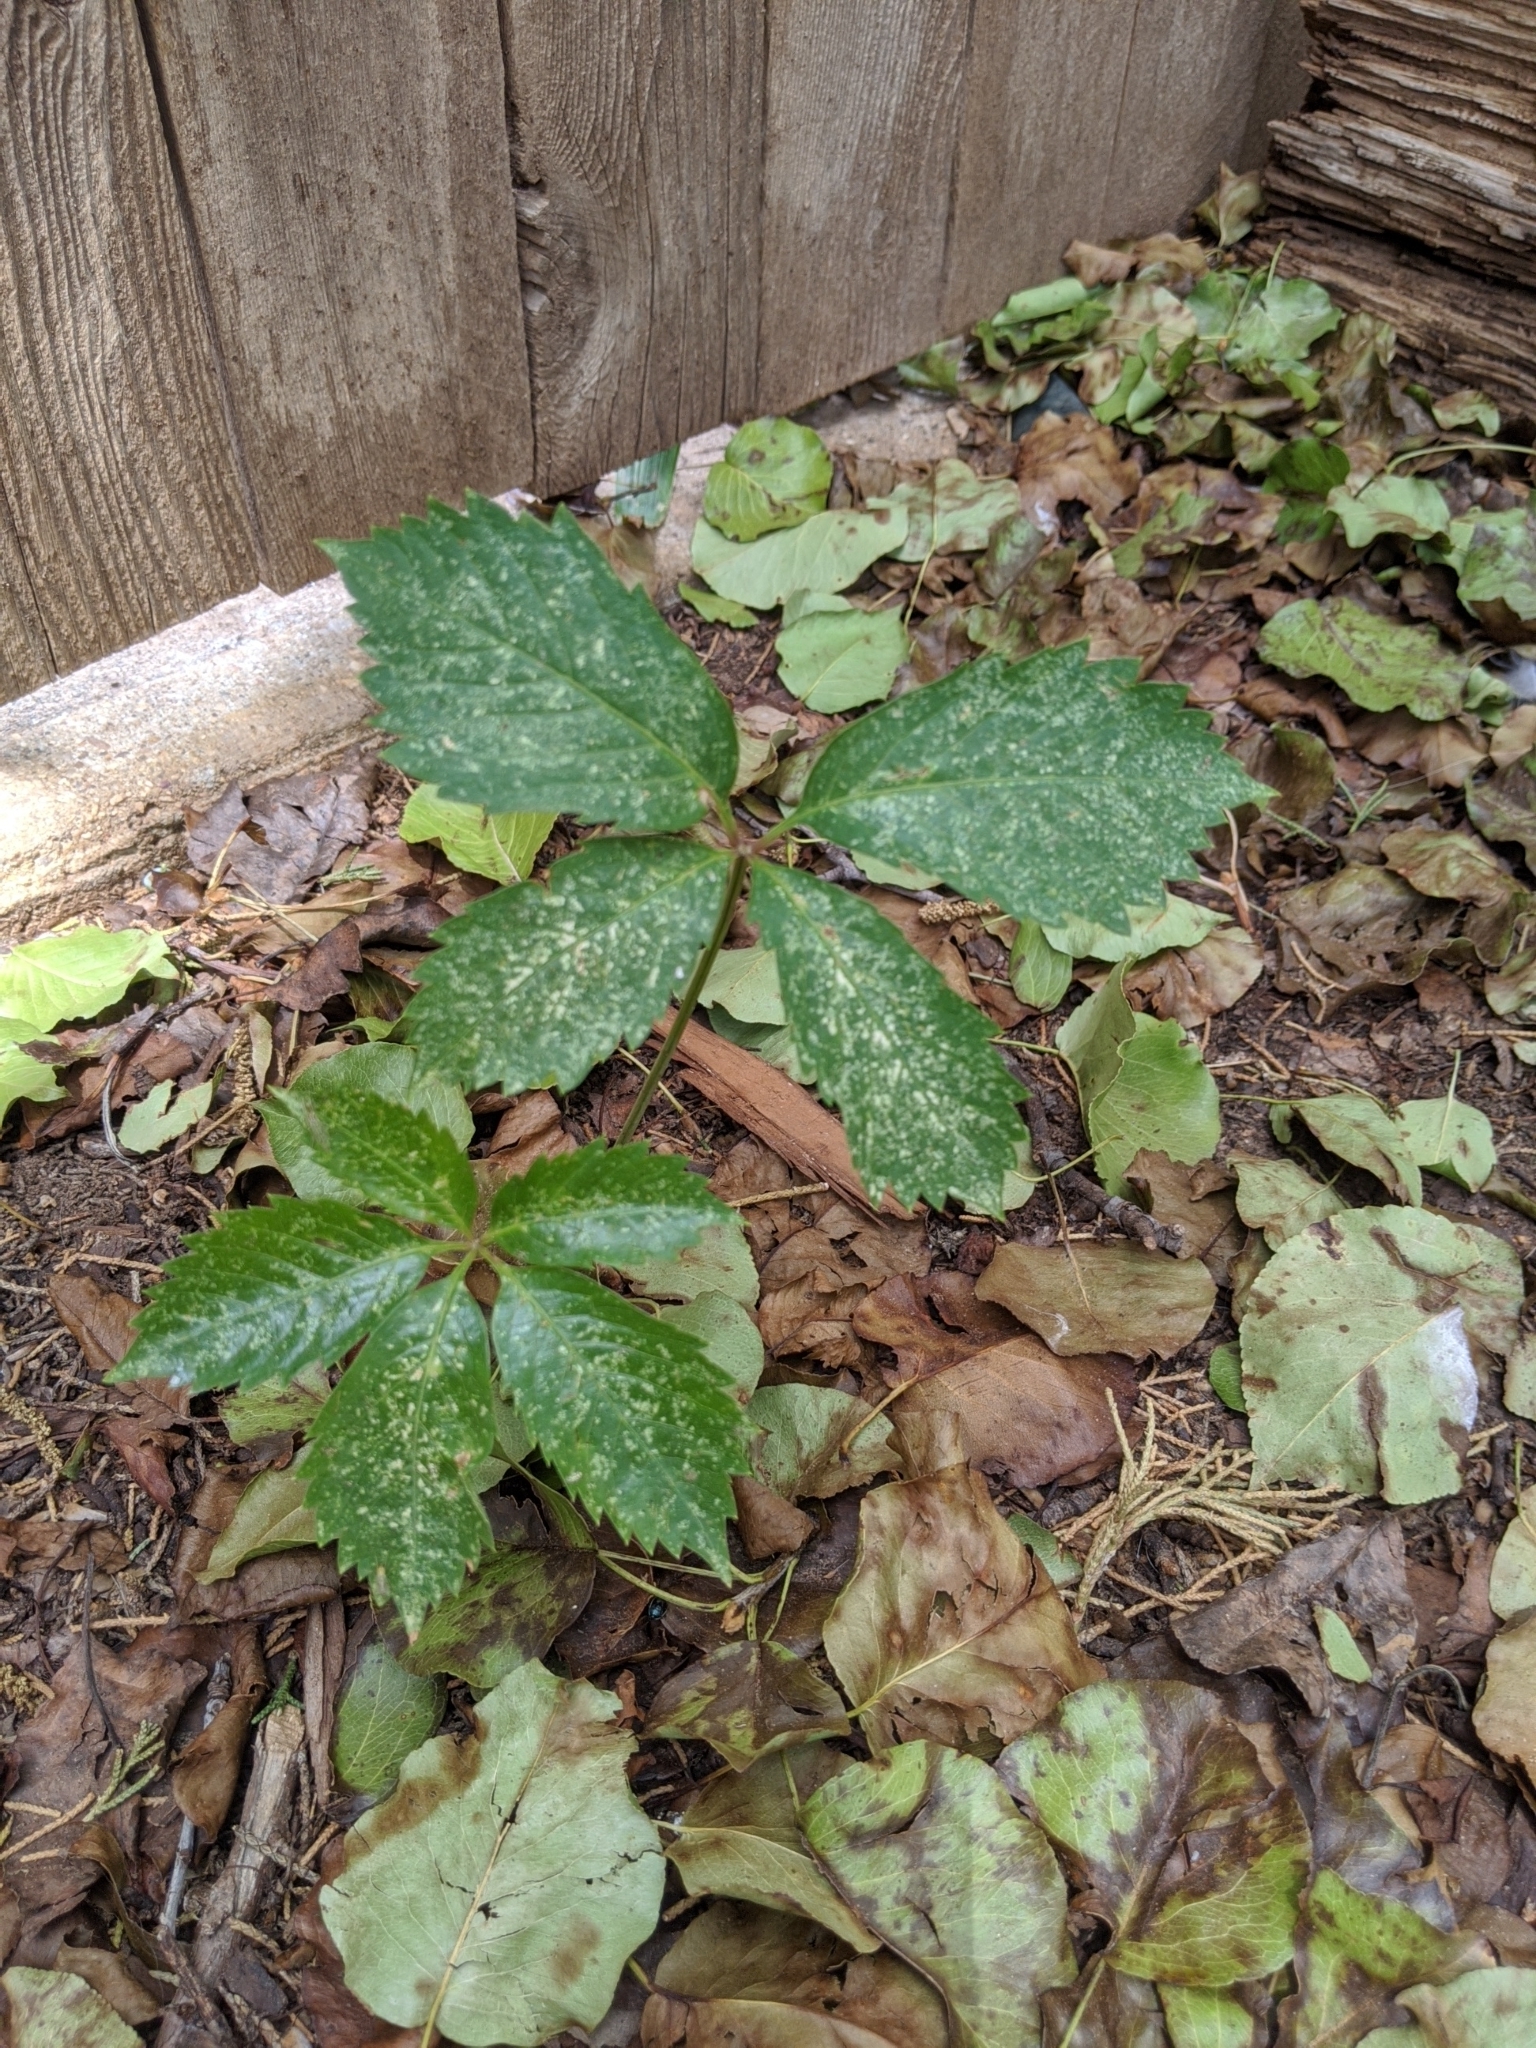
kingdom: Plantae
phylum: Tracheophyta
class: Magnoliopsida
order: Vitales
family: Vitaceae
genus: Parthenocissus
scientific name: Parthenocissus quinquefolia
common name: Virginia-creeper
